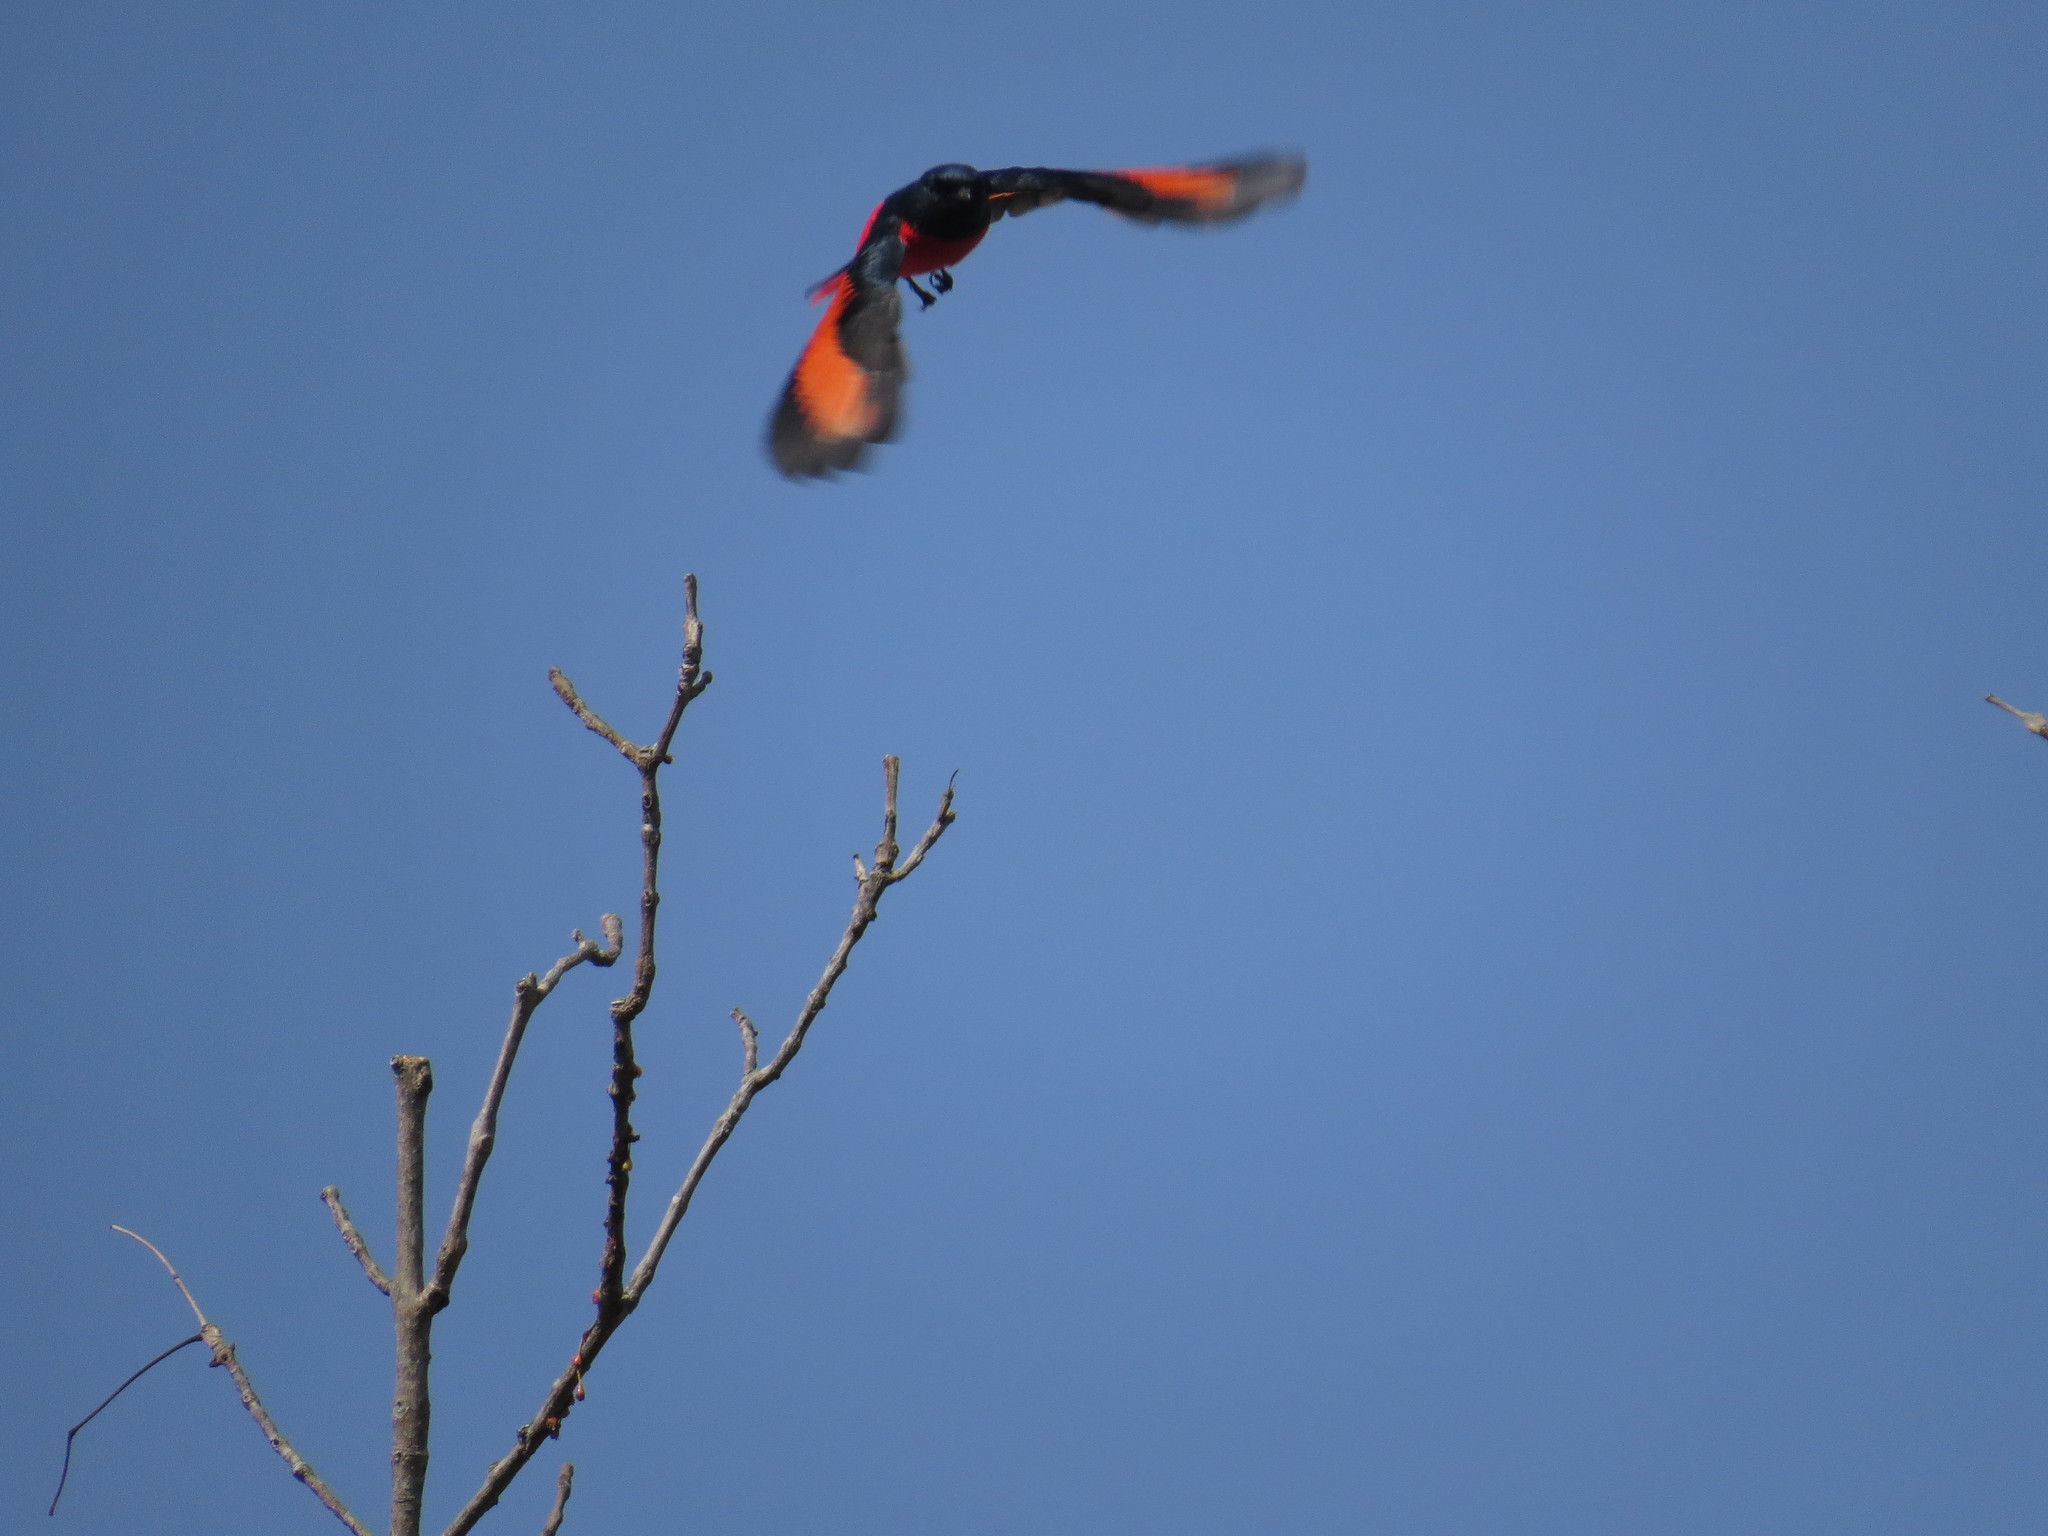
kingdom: Animalia
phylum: Chordata
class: Aves
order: Passeriformes
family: Campephagidae
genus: Pericrocotus
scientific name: Pericrocotus ethologus
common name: Long-tailed minivet
